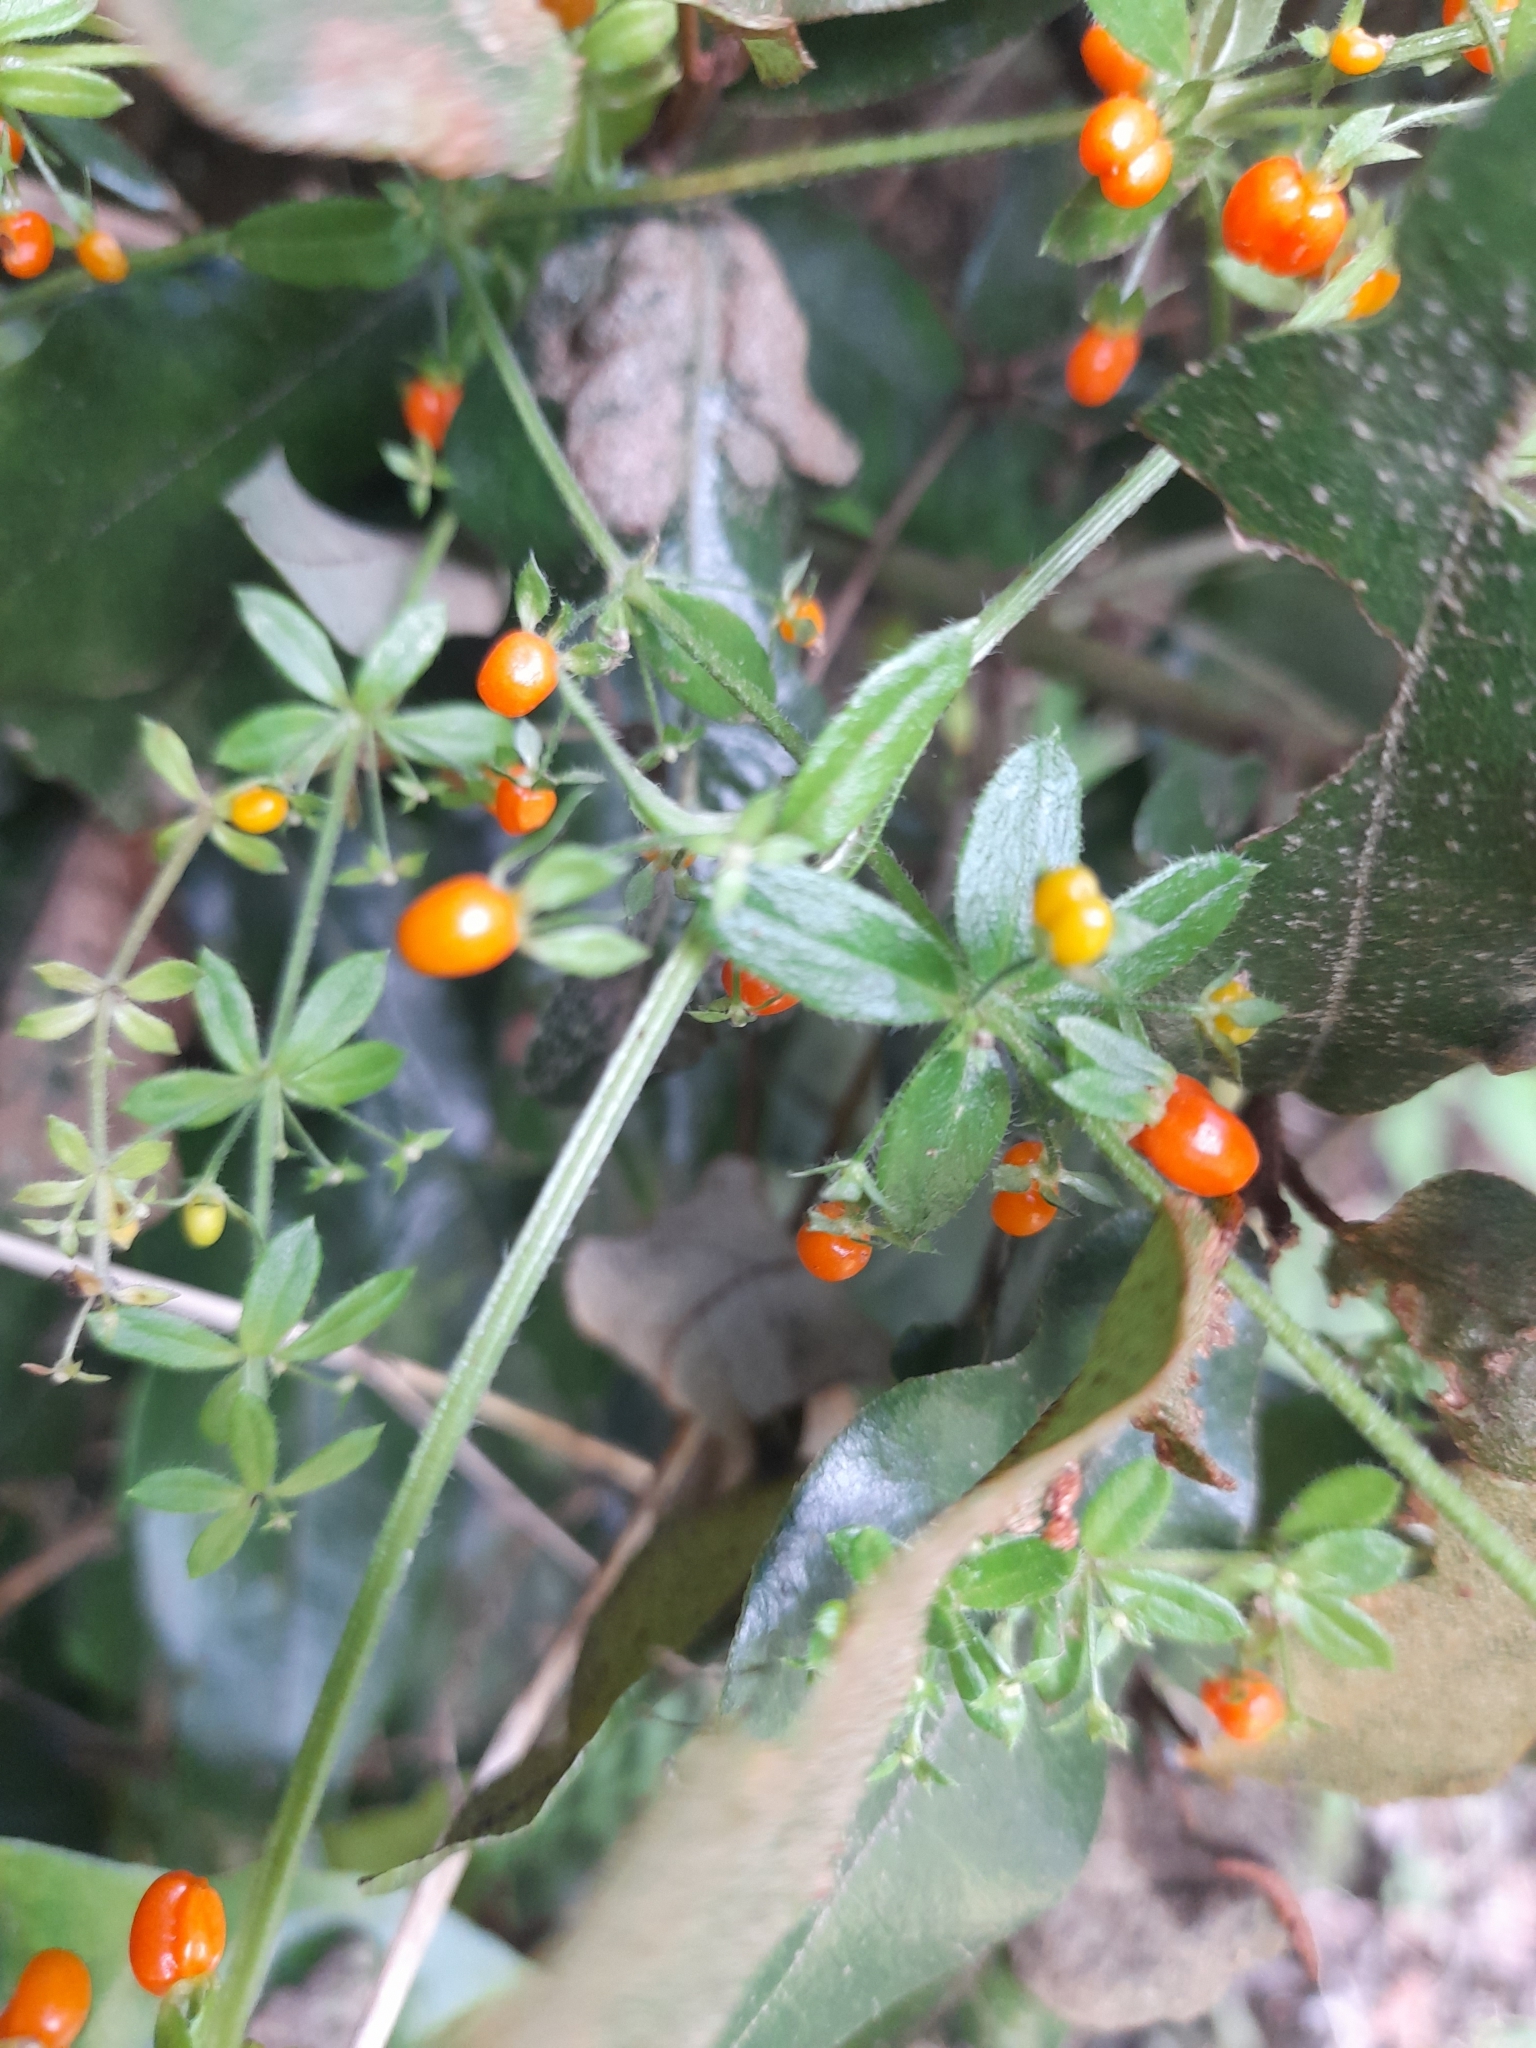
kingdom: Plantae
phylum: Tracheophyta
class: Magnoliopsida
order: Gentianales
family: Rubiaceae
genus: Galium
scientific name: Galium hypocarpium
